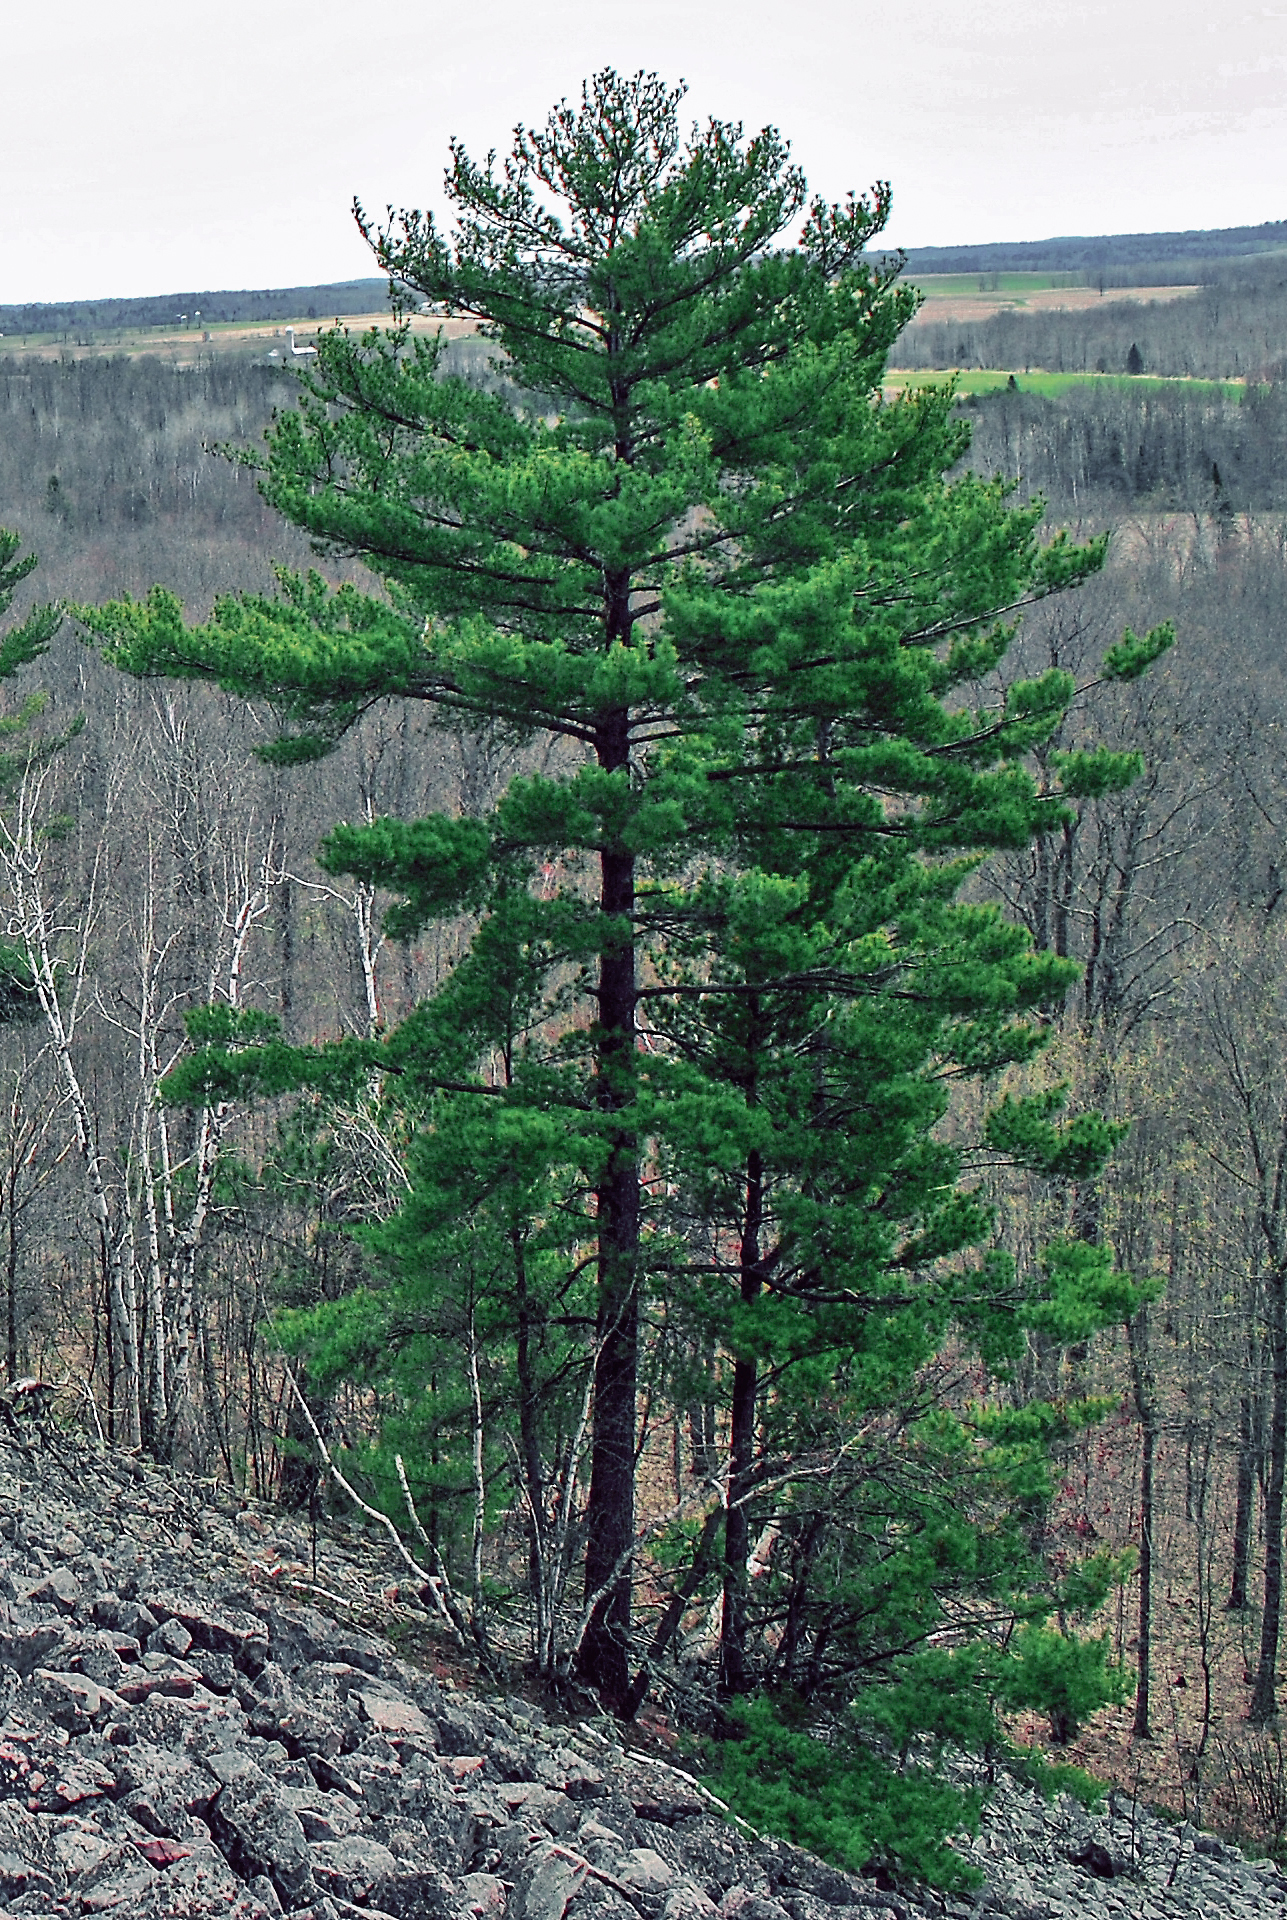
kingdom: Plantae
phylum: Tracheophyta
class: Pinopsida
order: Pinales
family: Pinaceae
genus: Pinus
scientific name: Pinus strobus
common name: Weymouth pine
